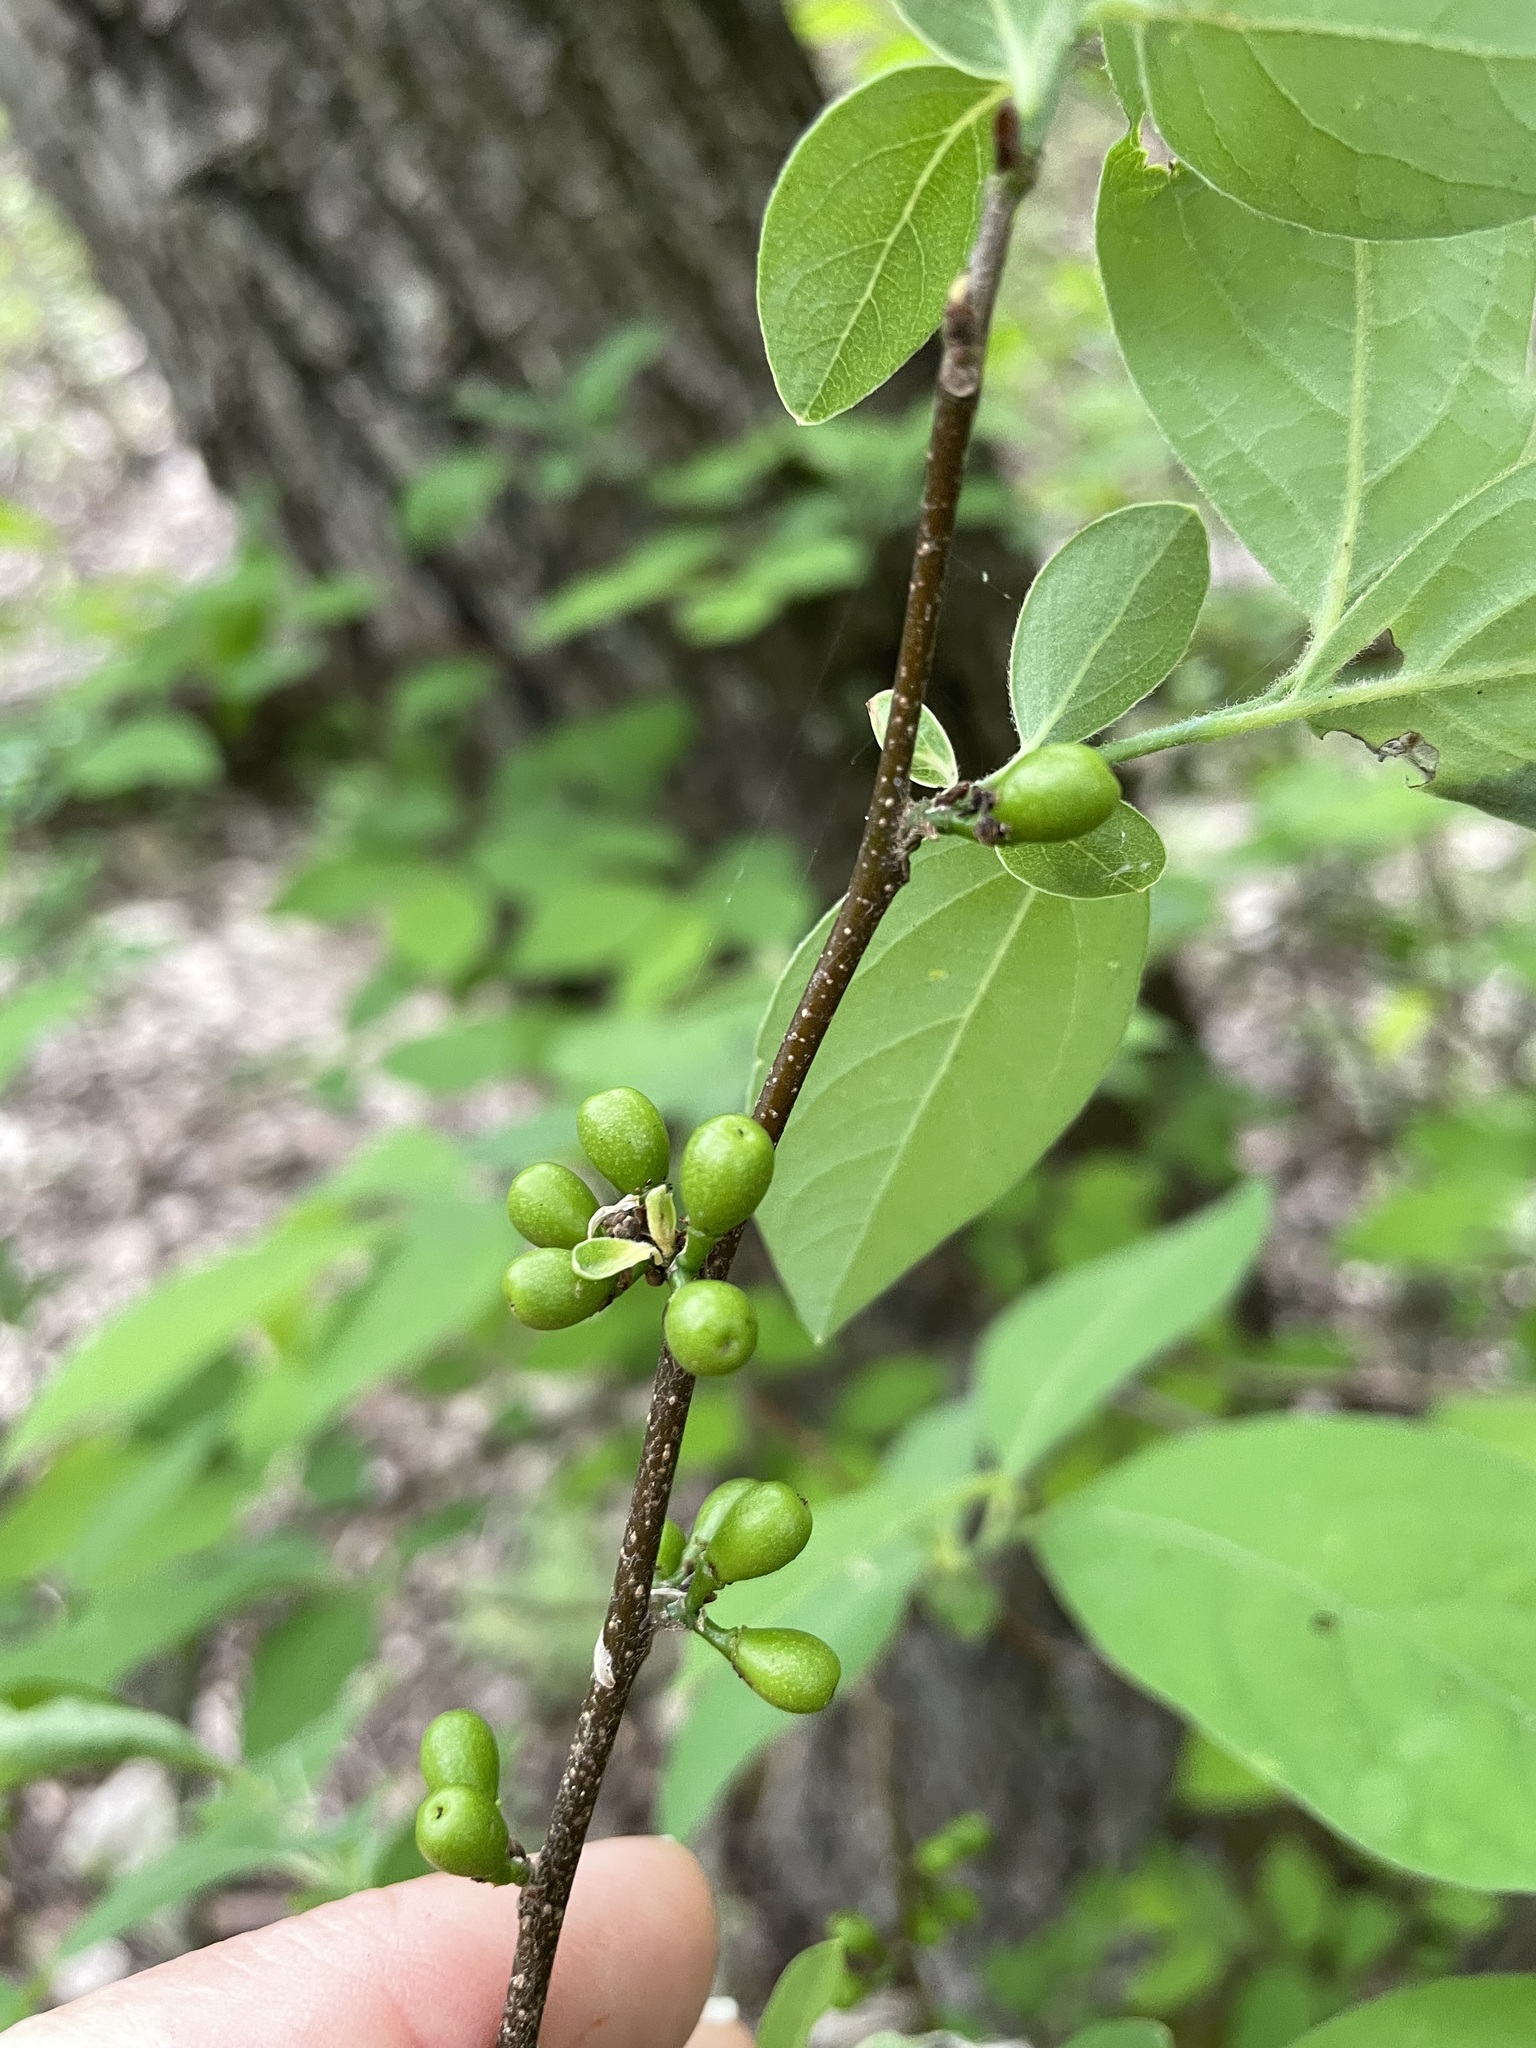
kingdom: Plantae
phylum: Tracheophyta
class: Magnoliopsida
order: Laurales
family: Lauraceae
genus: Lindera
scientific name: Lindera benzoin
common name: Spicebush
